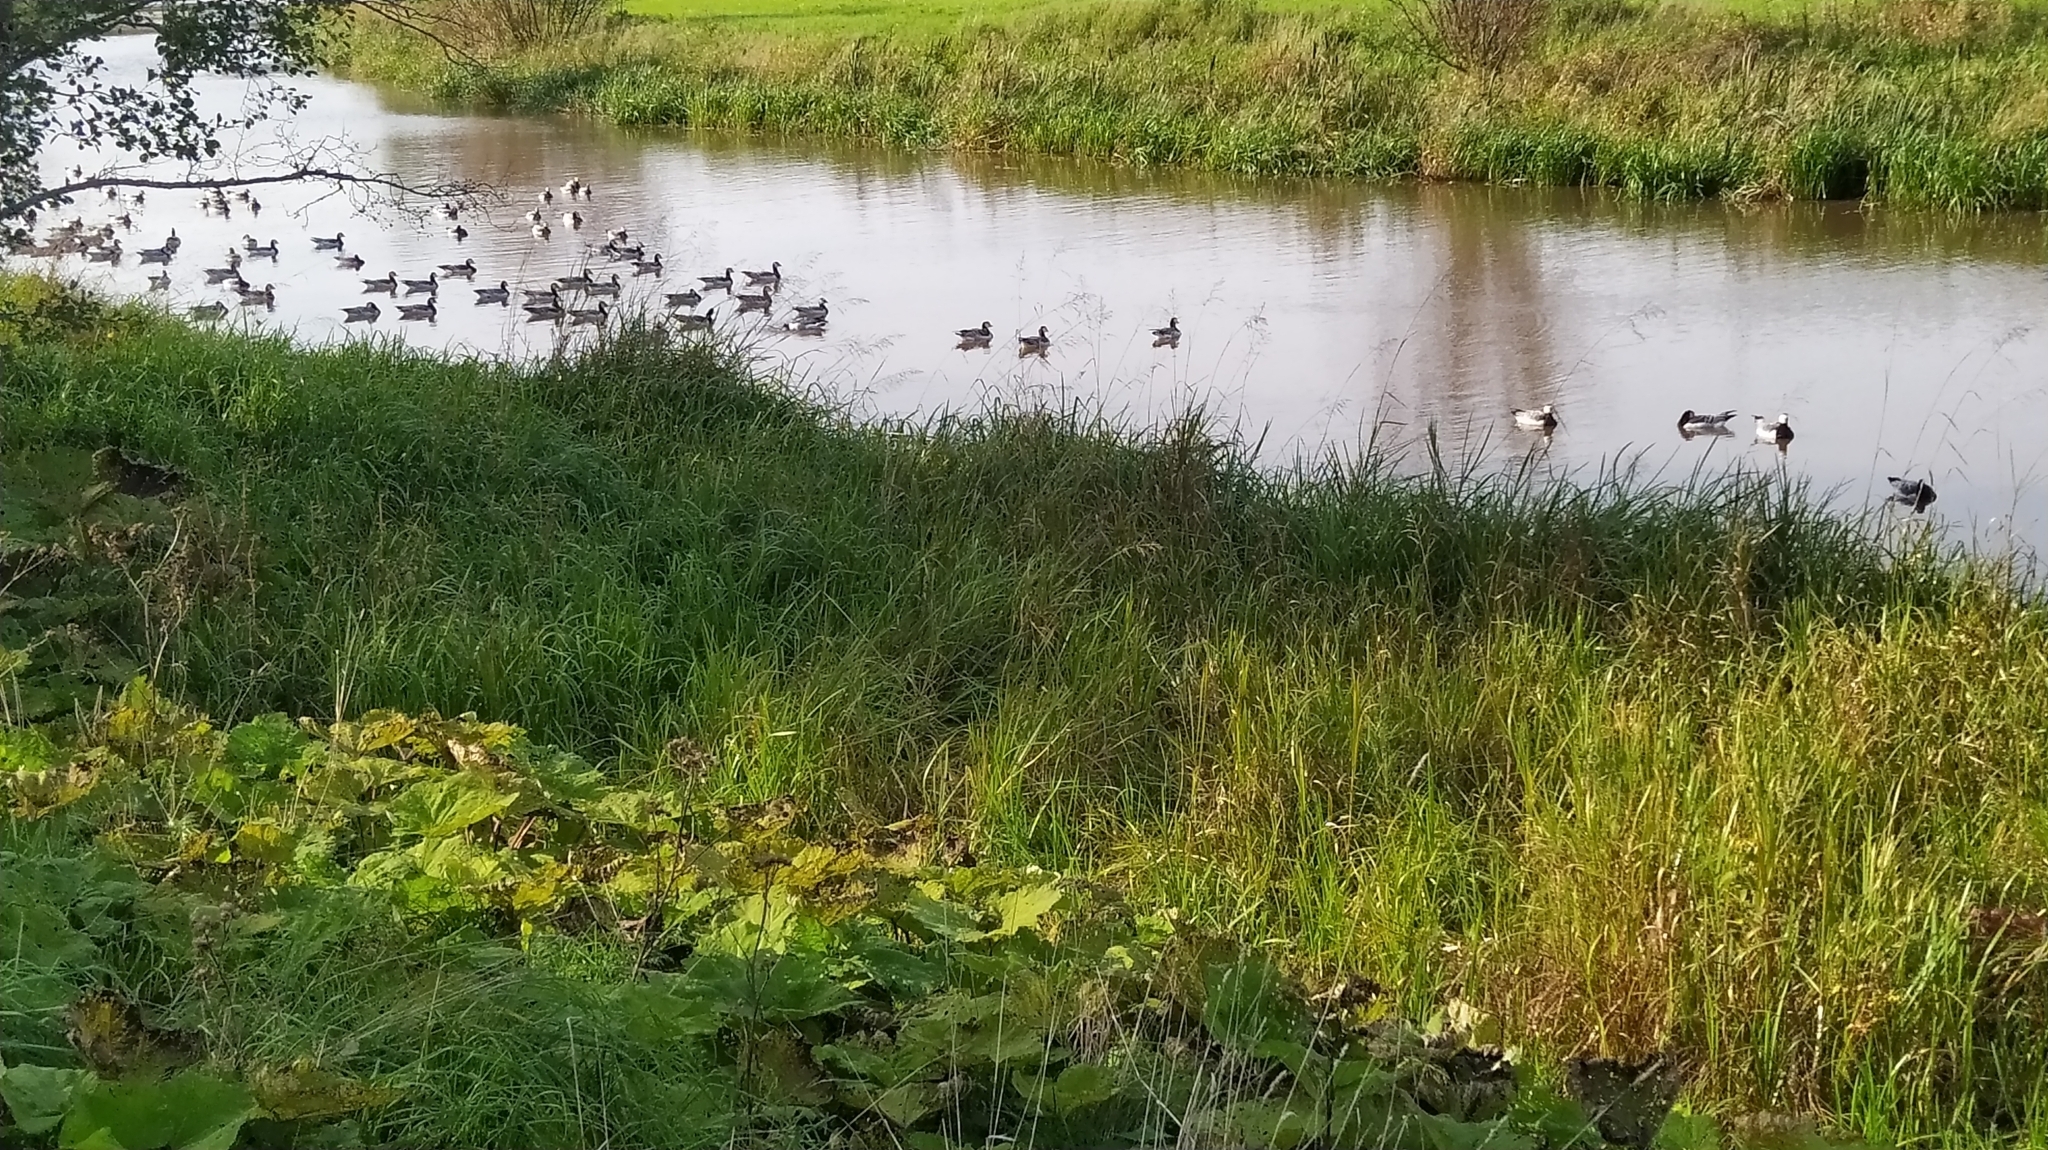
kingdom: Animalia
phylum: Chordata
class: Aves
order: Anseriformes
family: Anatidae
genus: Branta
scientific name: Branta leucopsis
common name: Barnacle goose
